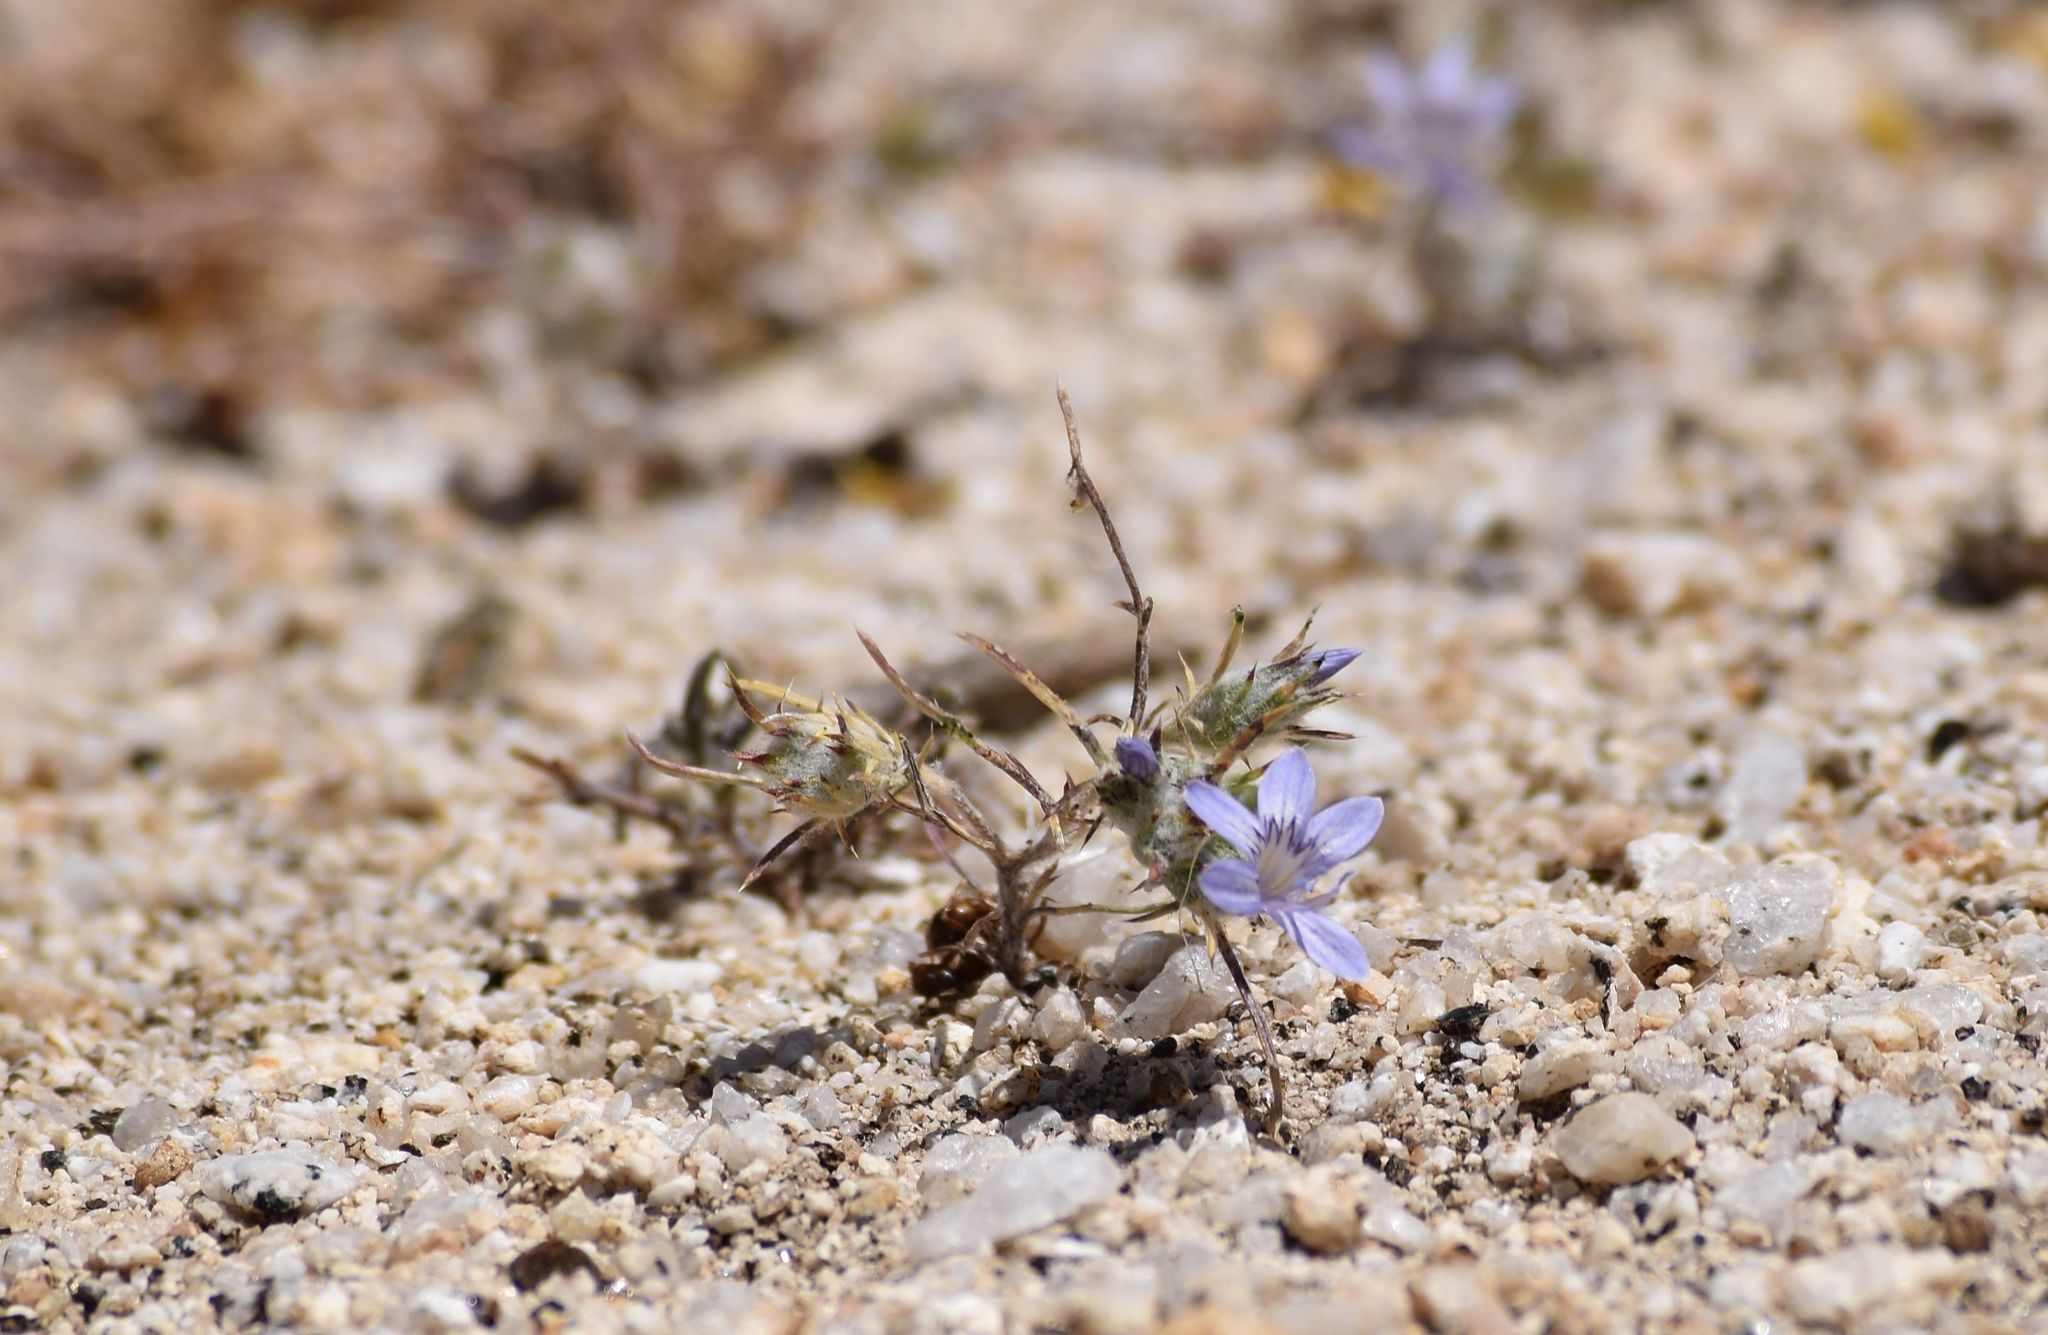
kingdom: Plantae
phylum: Tracheophyta
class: Magnoliopsida
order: Ericales
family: Polemoniaceae
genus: Eriastrum
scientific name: Eriastrum eremicum
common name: Desert eriastrum
